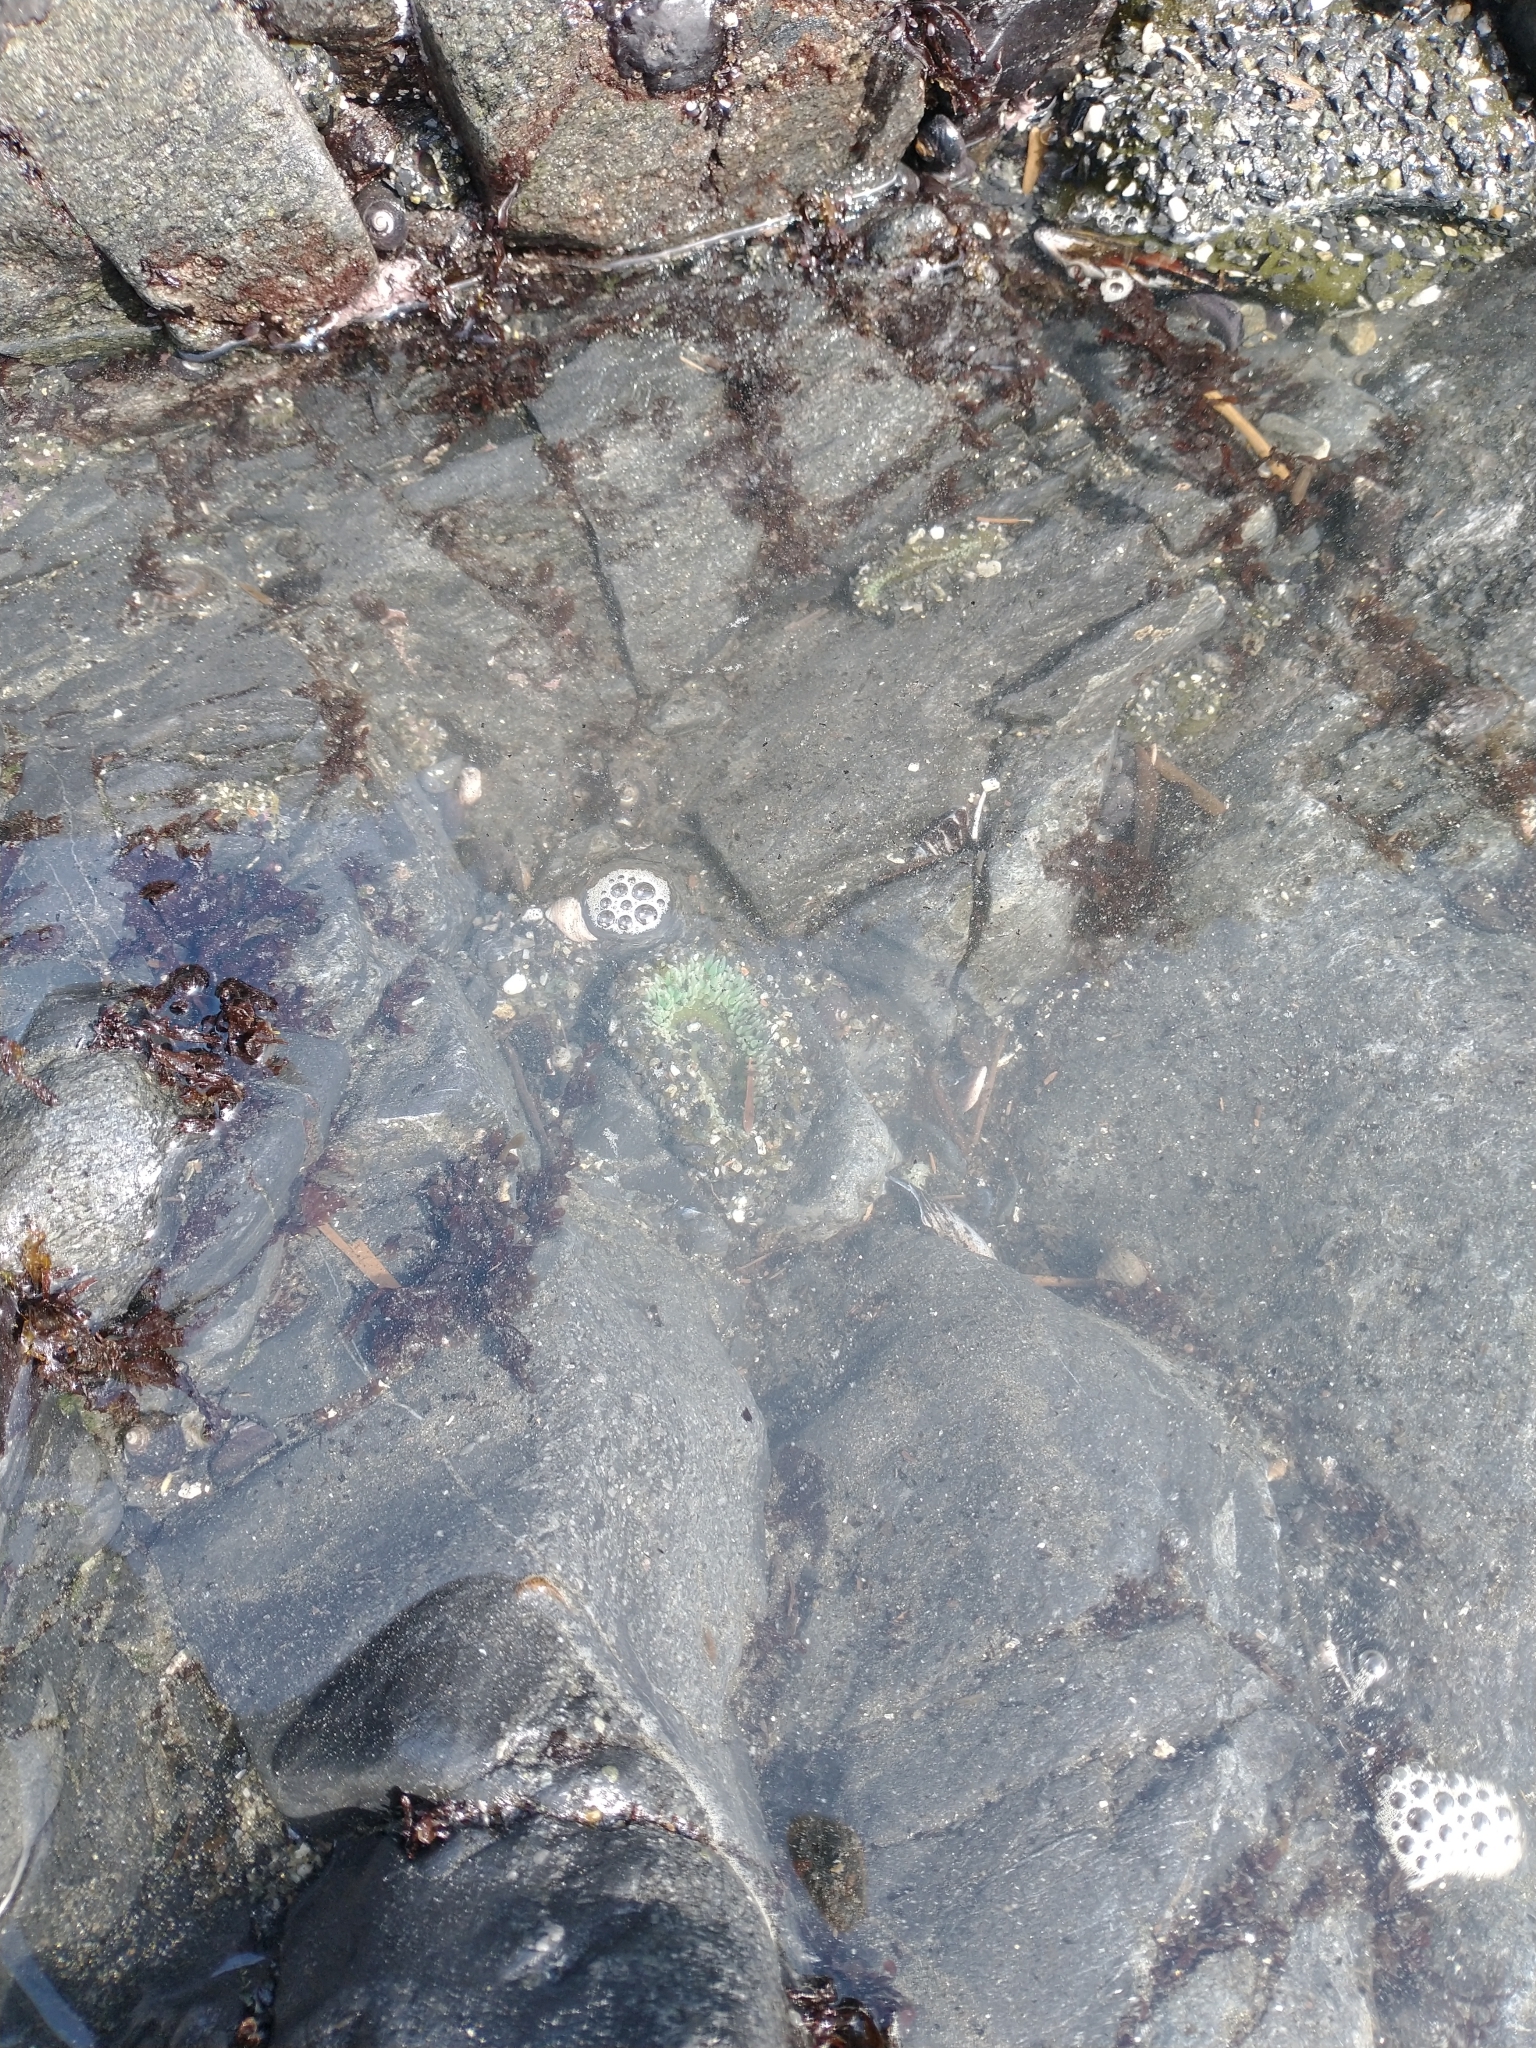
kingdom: Animalia
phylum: Cnidaria
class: Anthozoa
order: Actiniaria
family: Actiniidae
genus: Anthopleura
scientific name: Anthopleura xanthogrammica
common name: Giant green anemone
